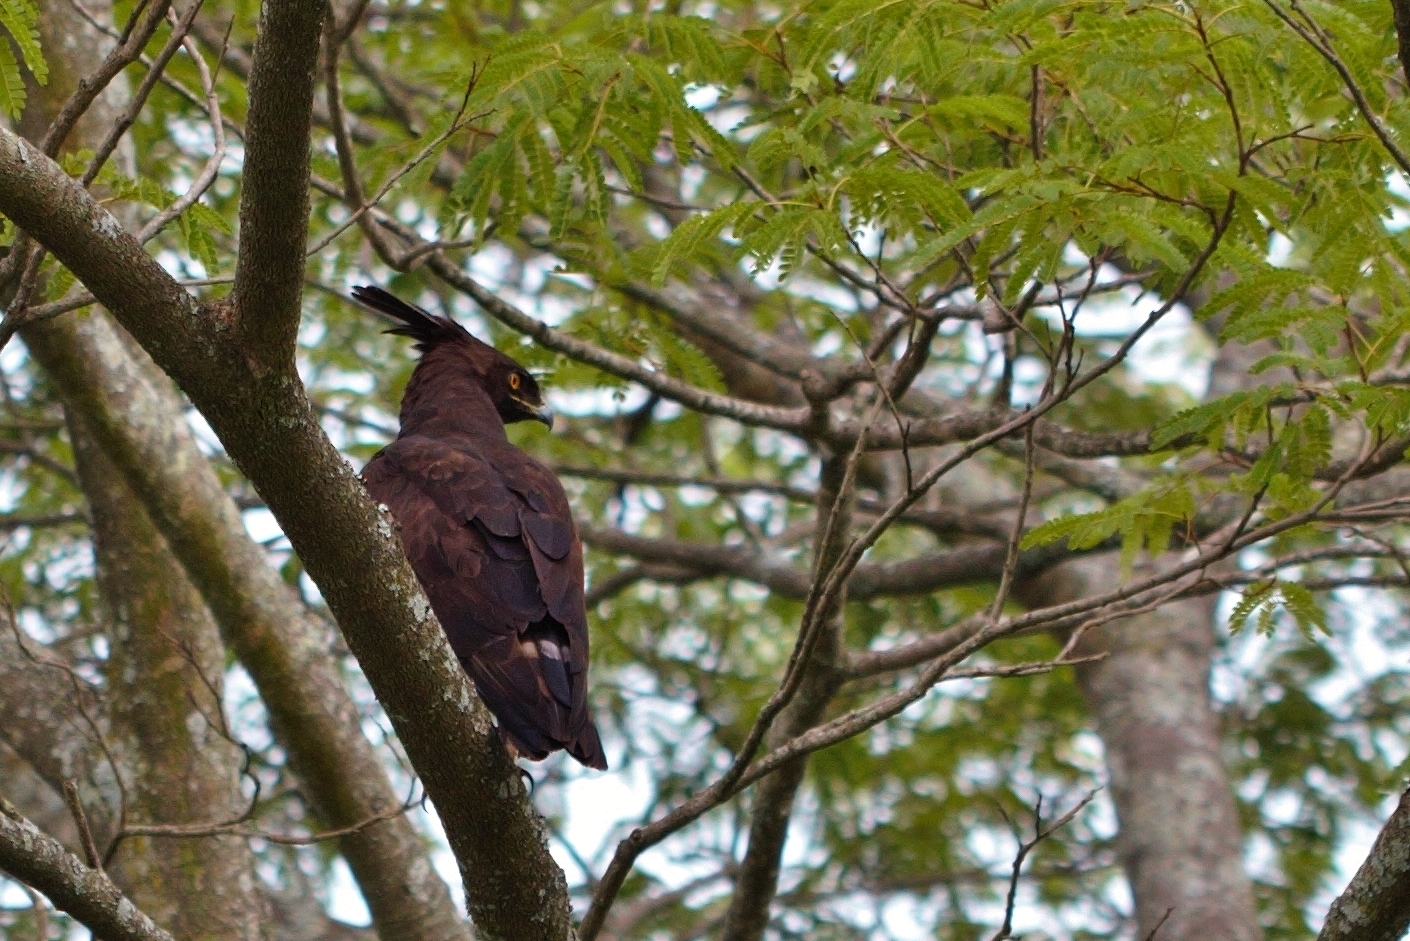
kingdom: Animalia
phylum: Chordata
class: Aves
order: Accipitriformes
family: Accipitridae
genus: Lophaetus
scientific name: Lophaetus occipitalis
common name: Long-crested eagle
